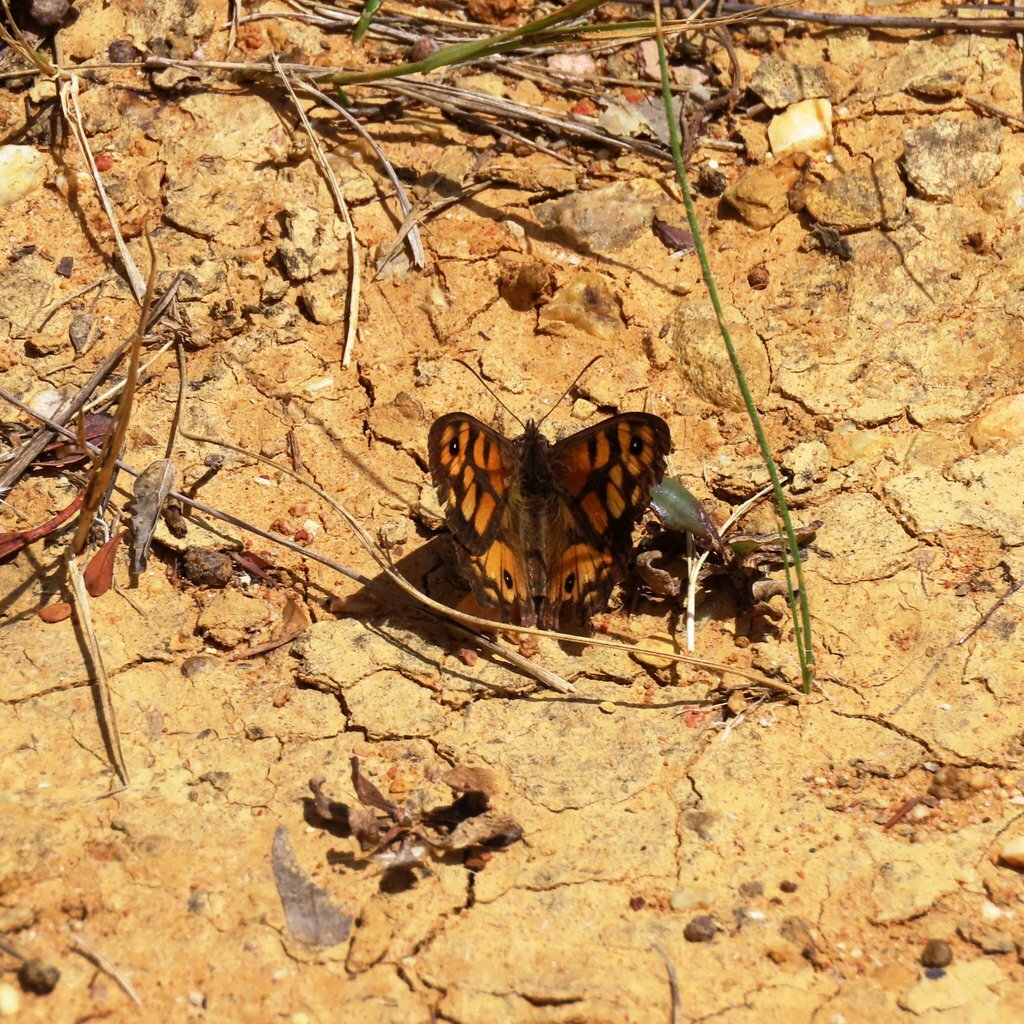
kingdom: Animalia
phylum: Arthropoda
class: Insecta
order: Lepidoptera
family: Nymphalidae
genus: Geitoneura
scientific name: Geitoneura klugii
